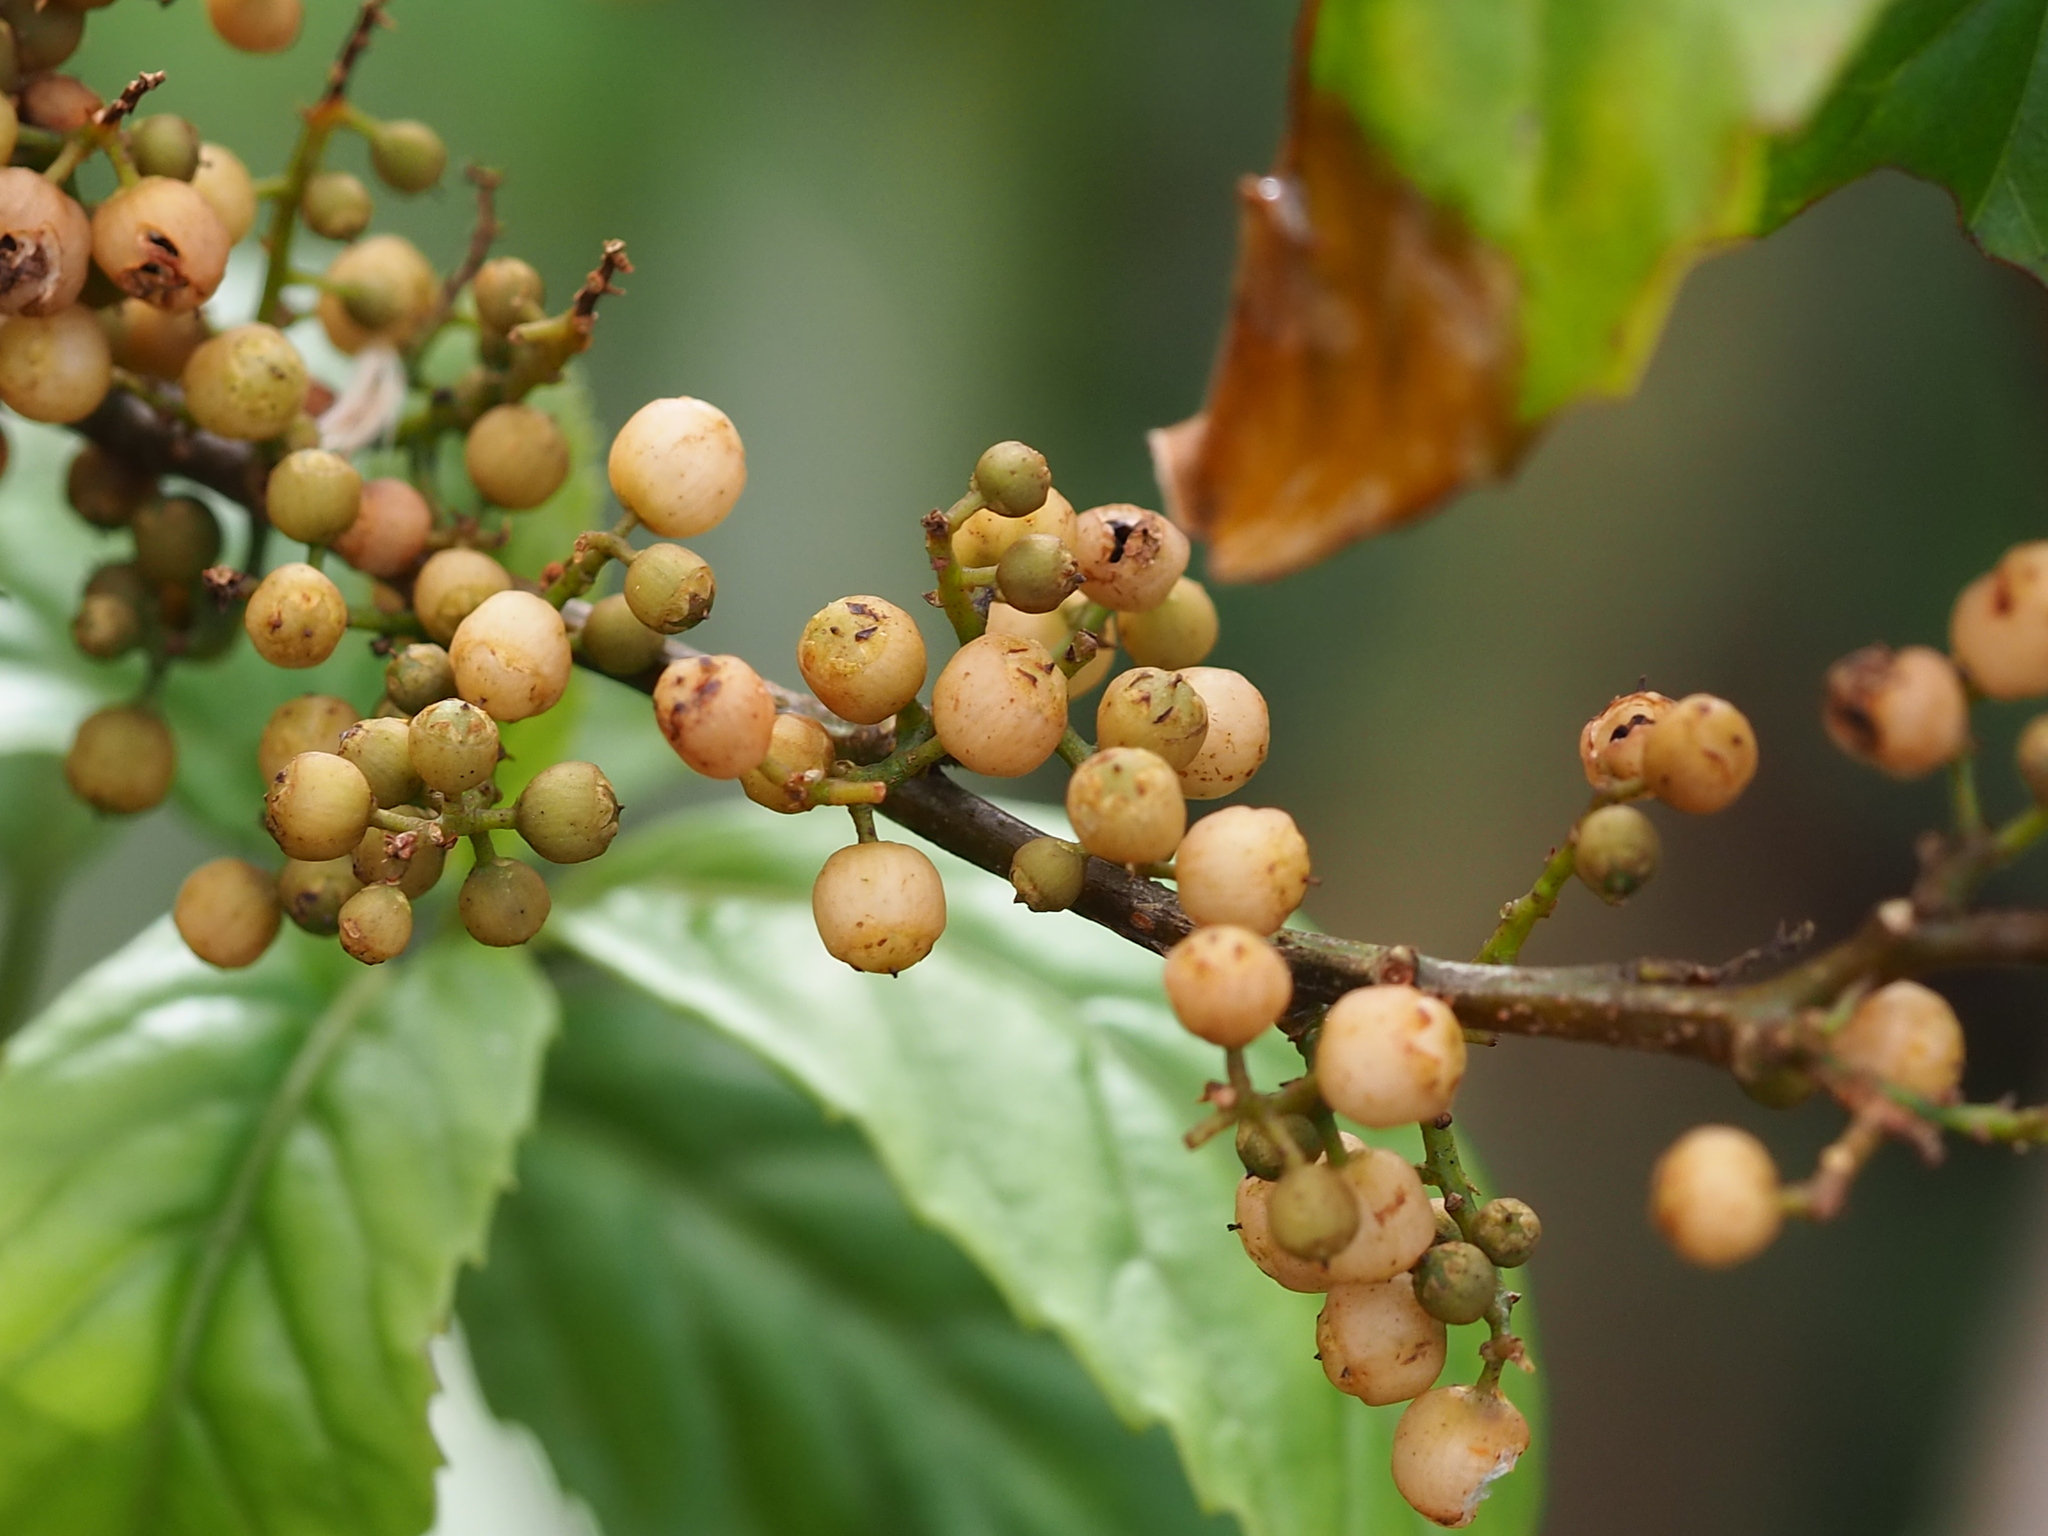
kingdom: Plantae
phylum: Tracheophyta
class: Magnoliopsida
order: Ericales
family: Primulaceae
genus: Maesa
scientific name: Maesa perlaria
